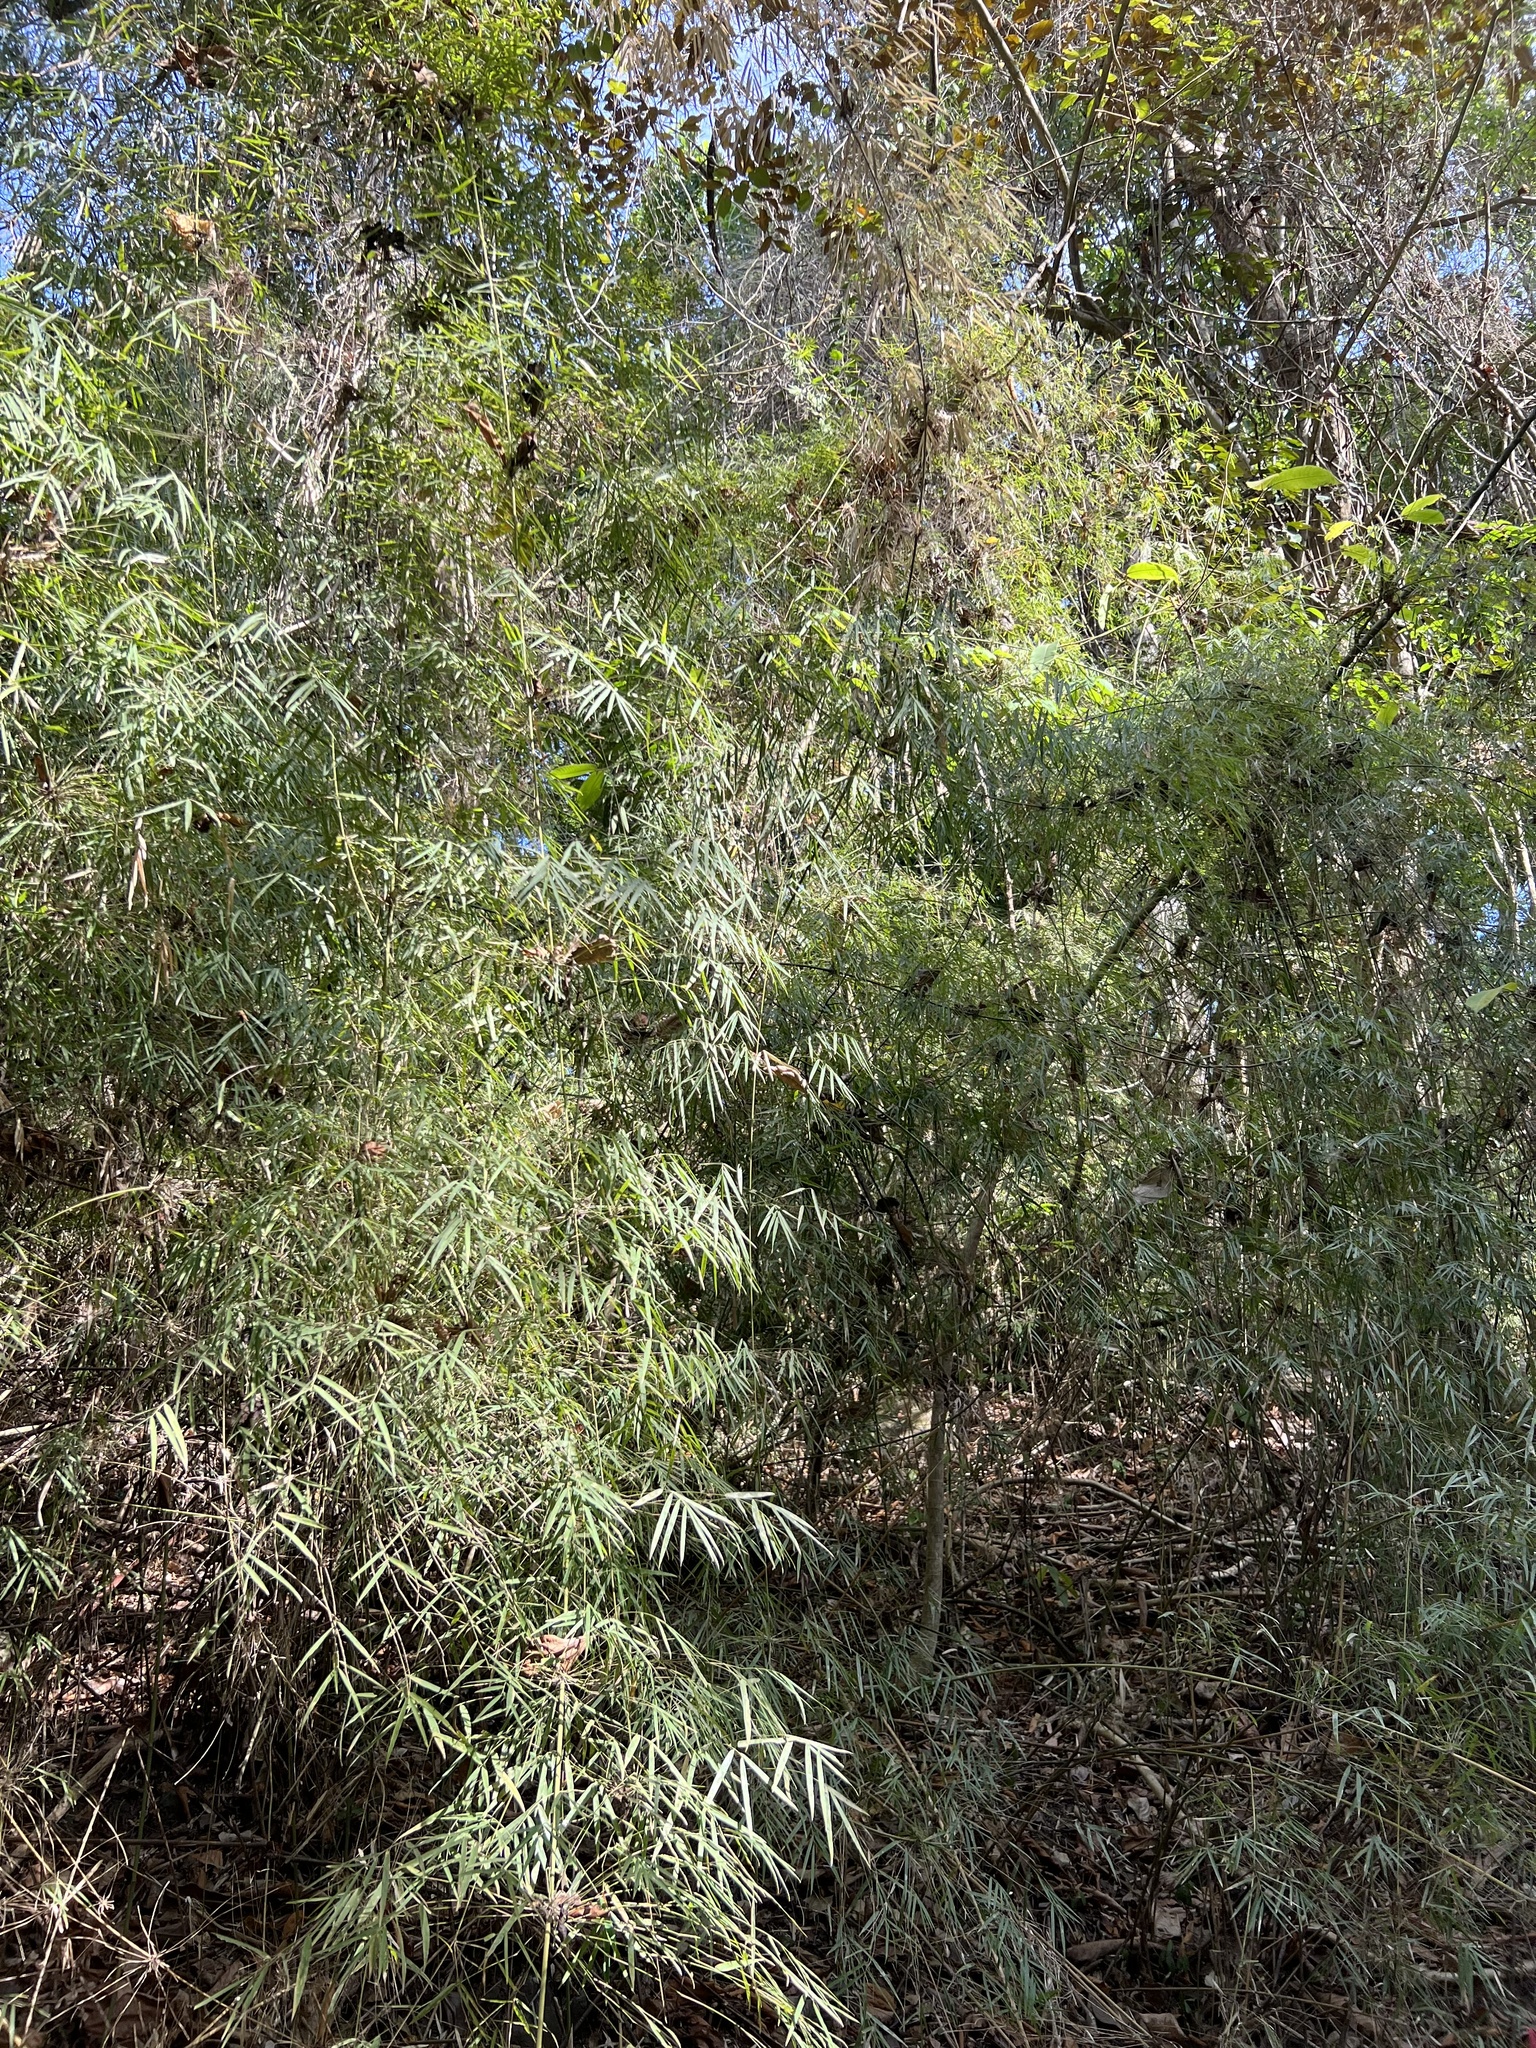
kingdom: Plantae
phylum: Tracheophyta
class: Liliopsida
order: Poales
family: Poaceae
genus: Rhipidocladum
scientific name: Rhipidocladum racemiflorum
